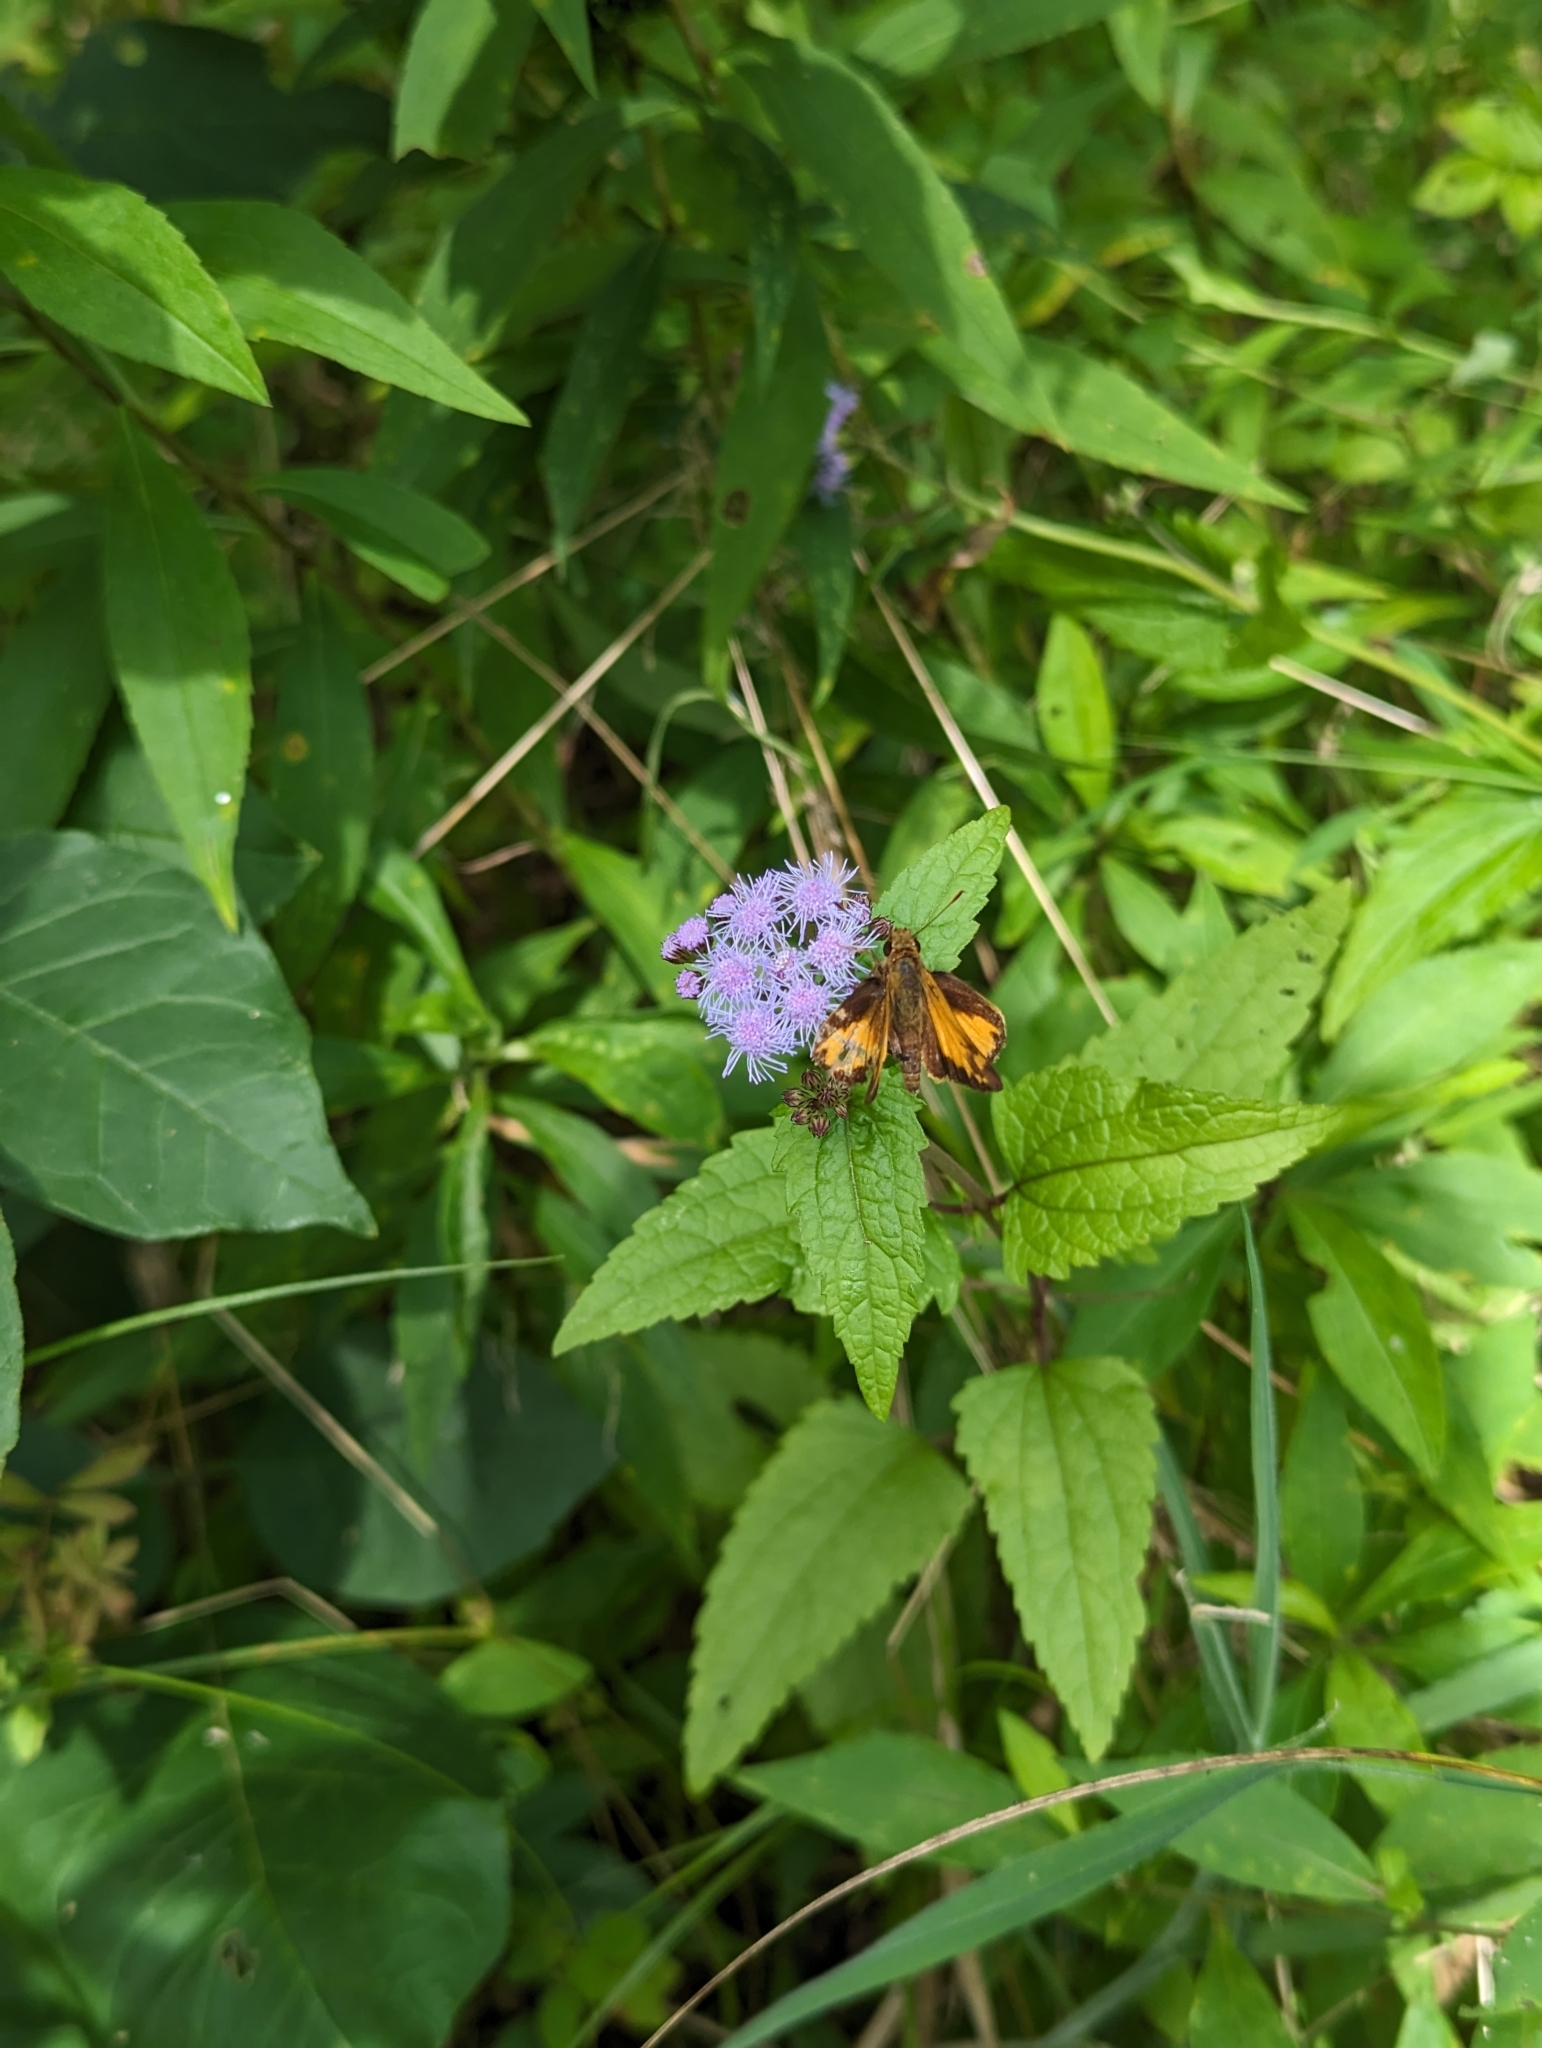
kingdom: Animalia
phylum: Arthropoda
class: Insecta
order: Lepidoptera
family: Hesperiidae
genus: Lon
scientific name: Lon zabulon
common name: Zabulon skipper
